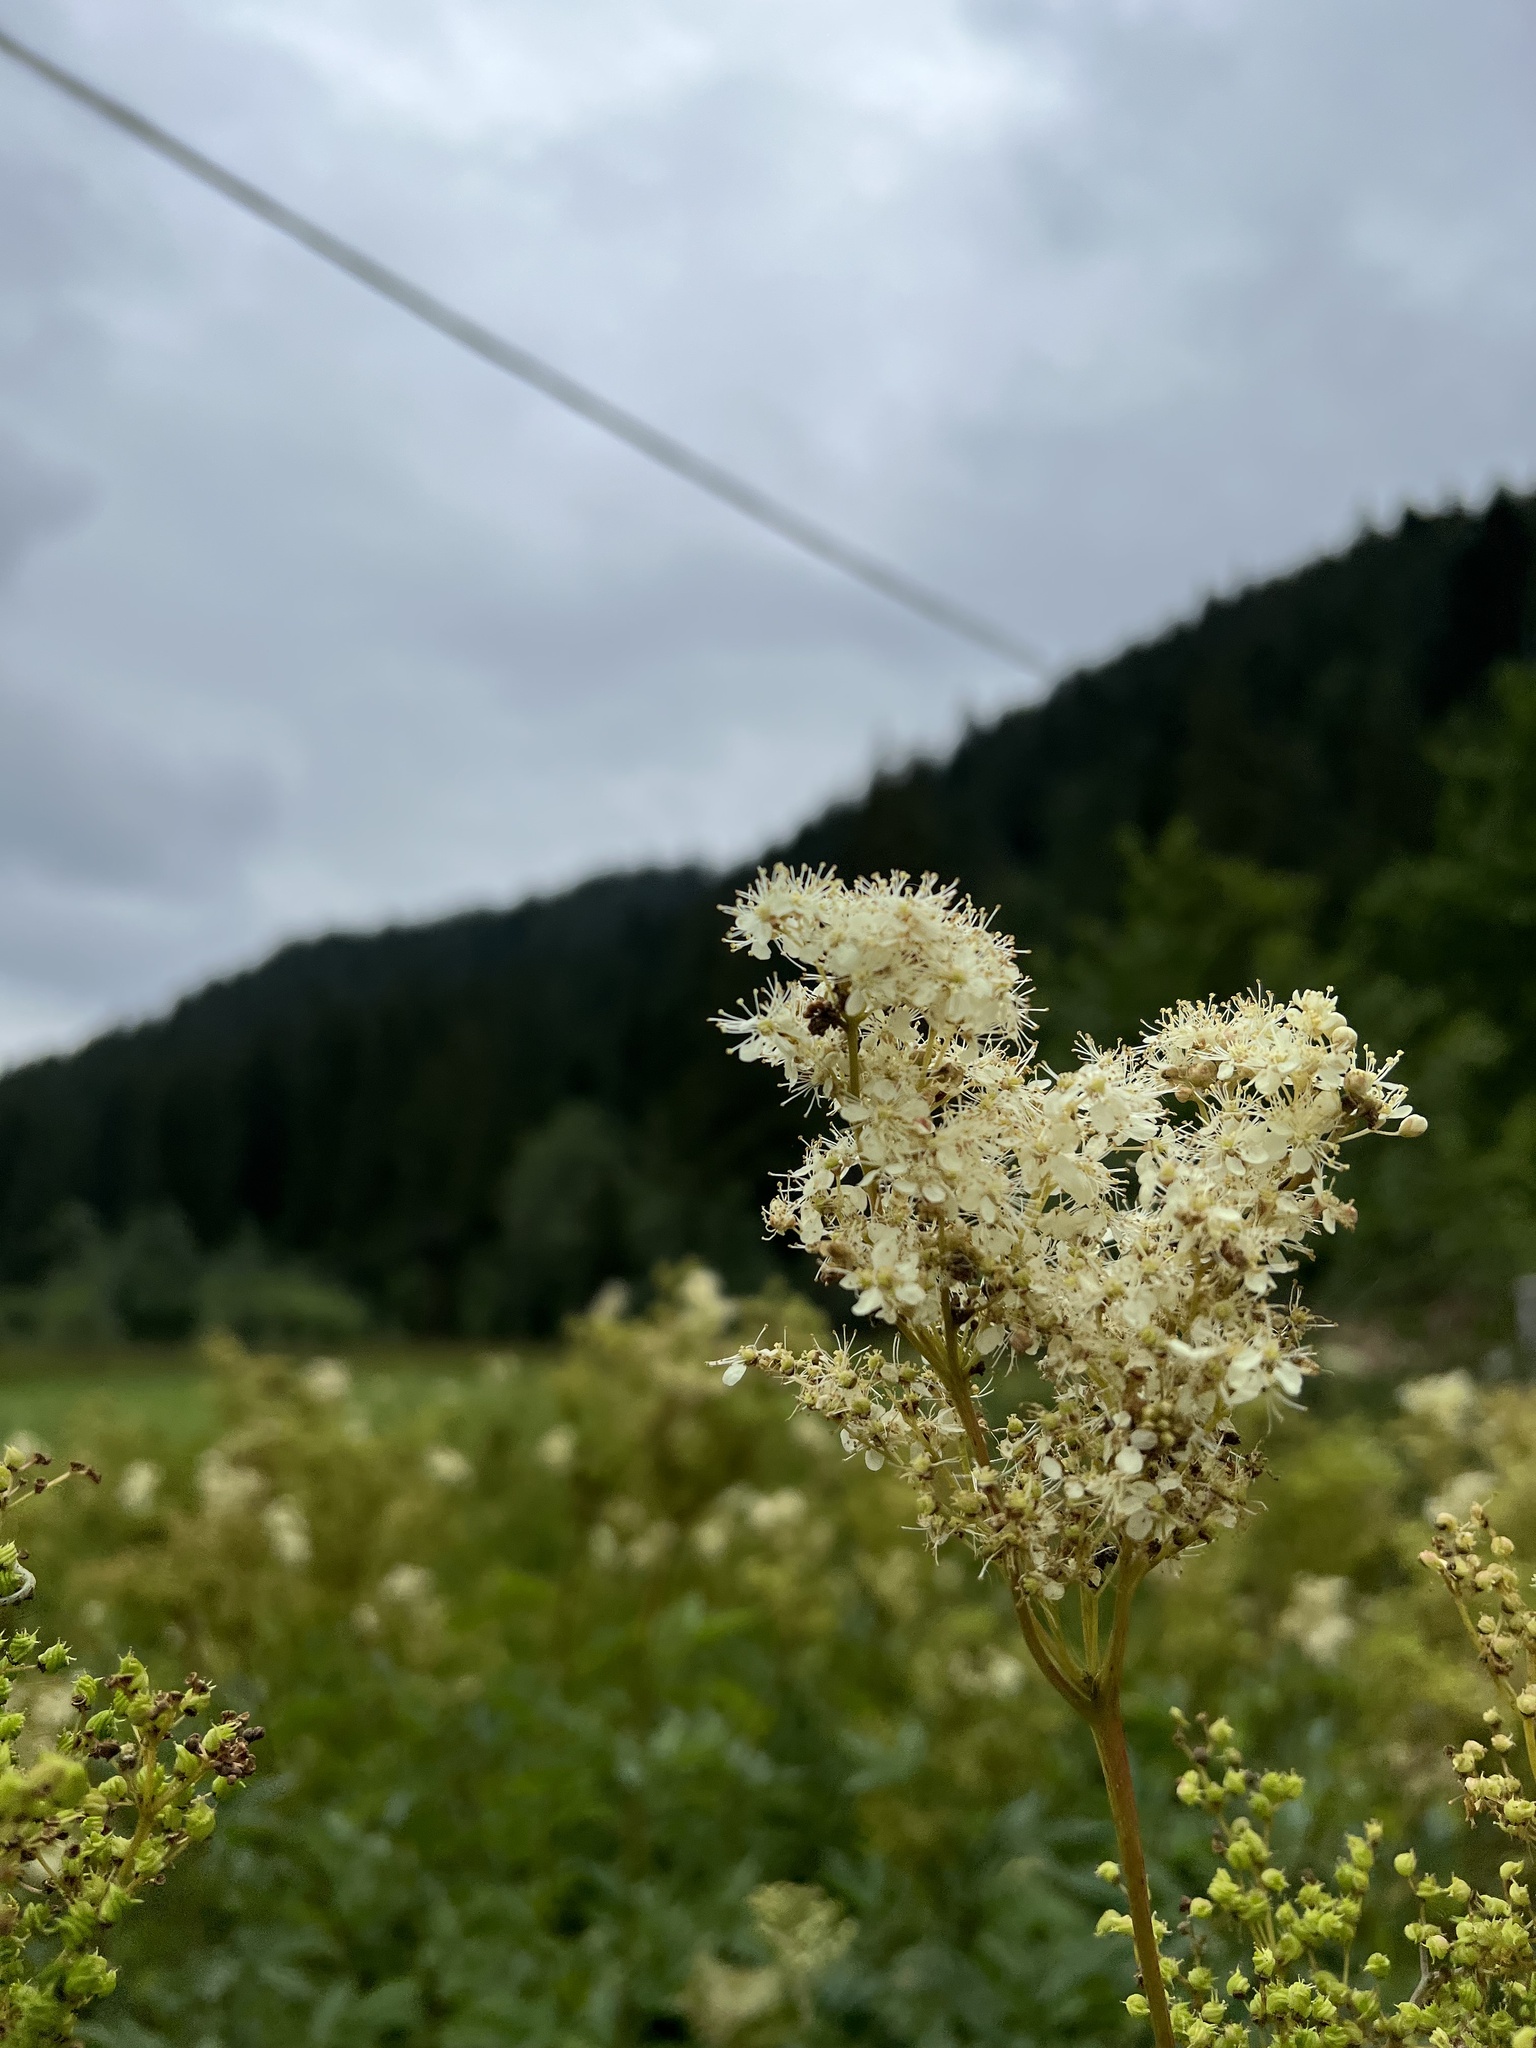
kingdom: Plantae
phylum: Tracheophyta
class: Magnoliopsida
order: Rosales
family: Rosaceae
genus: Filipendula
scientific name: Filipendula ulmaria
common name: Meadowsweet
